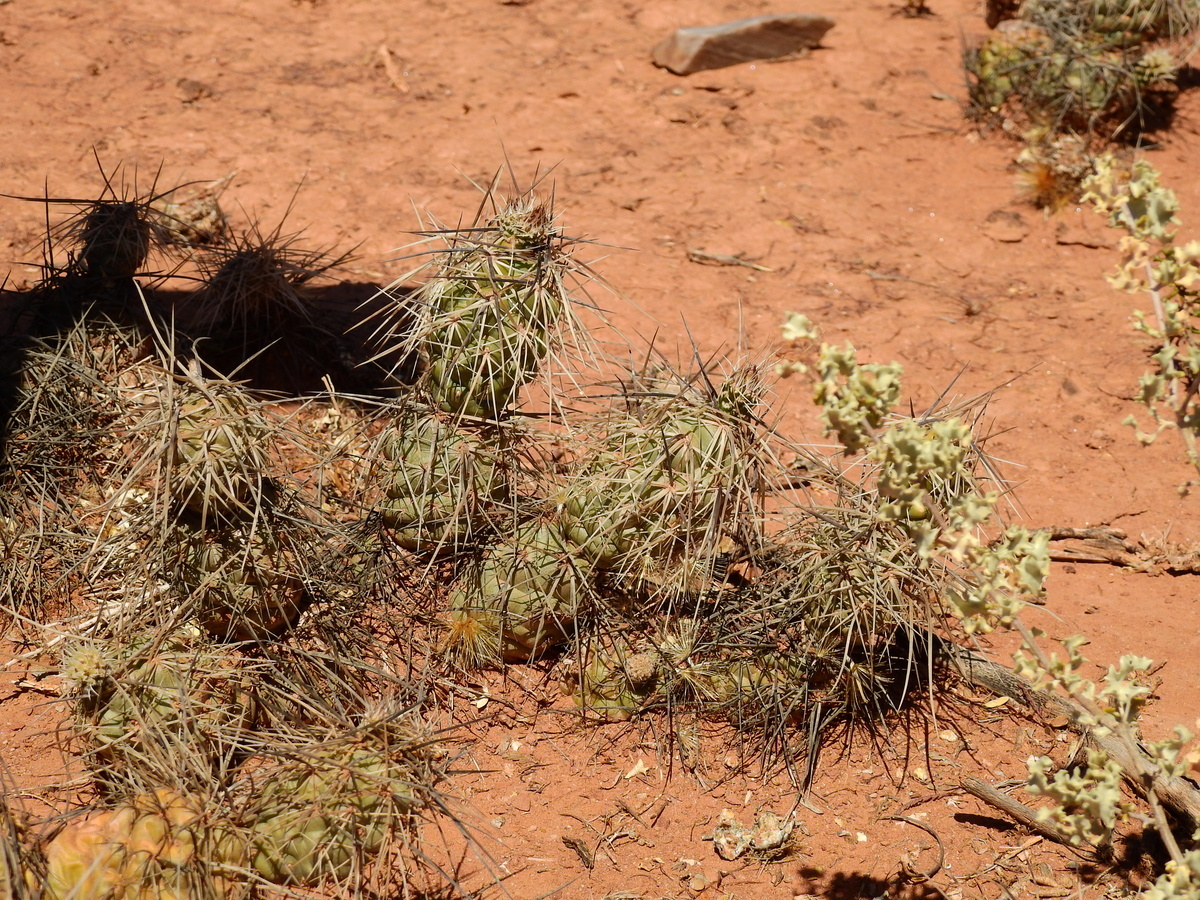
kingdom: Plantae
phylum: Tracheophyta
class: Magnoliopsida
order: Caryophyllales
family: Cactaceae
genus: Tephrocactus
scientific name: Tephrocactus alexanderi
